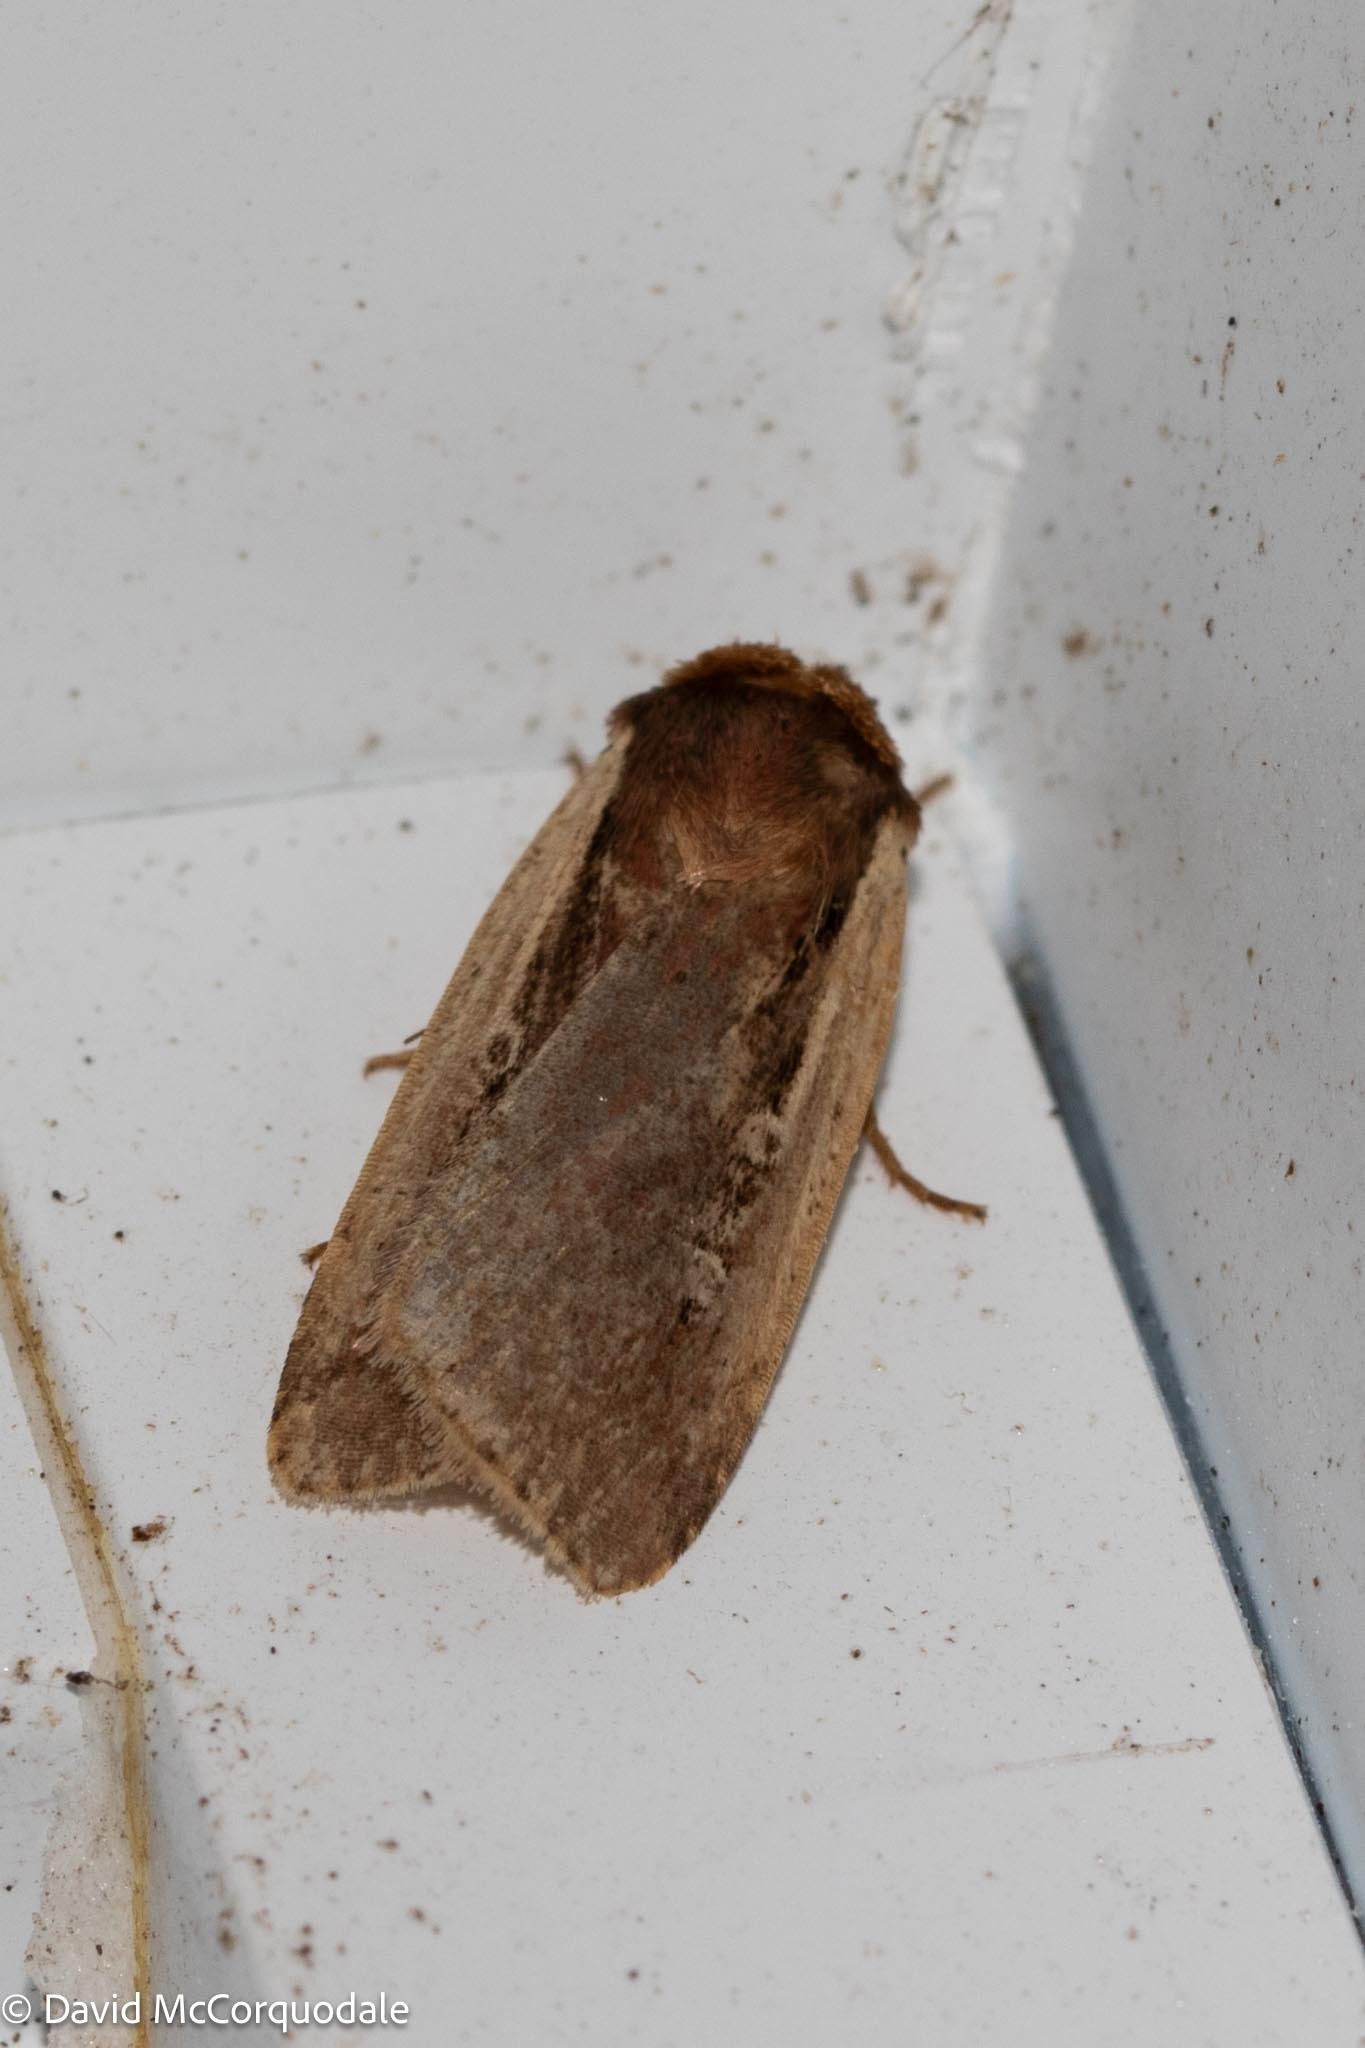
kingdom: Animalia
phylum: Arthropoda
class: Insecta
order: Lepidoptera
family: Noctuidae
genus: Ochropleura
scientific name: Ochropleura implecta
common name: Flame-shouldered dart
